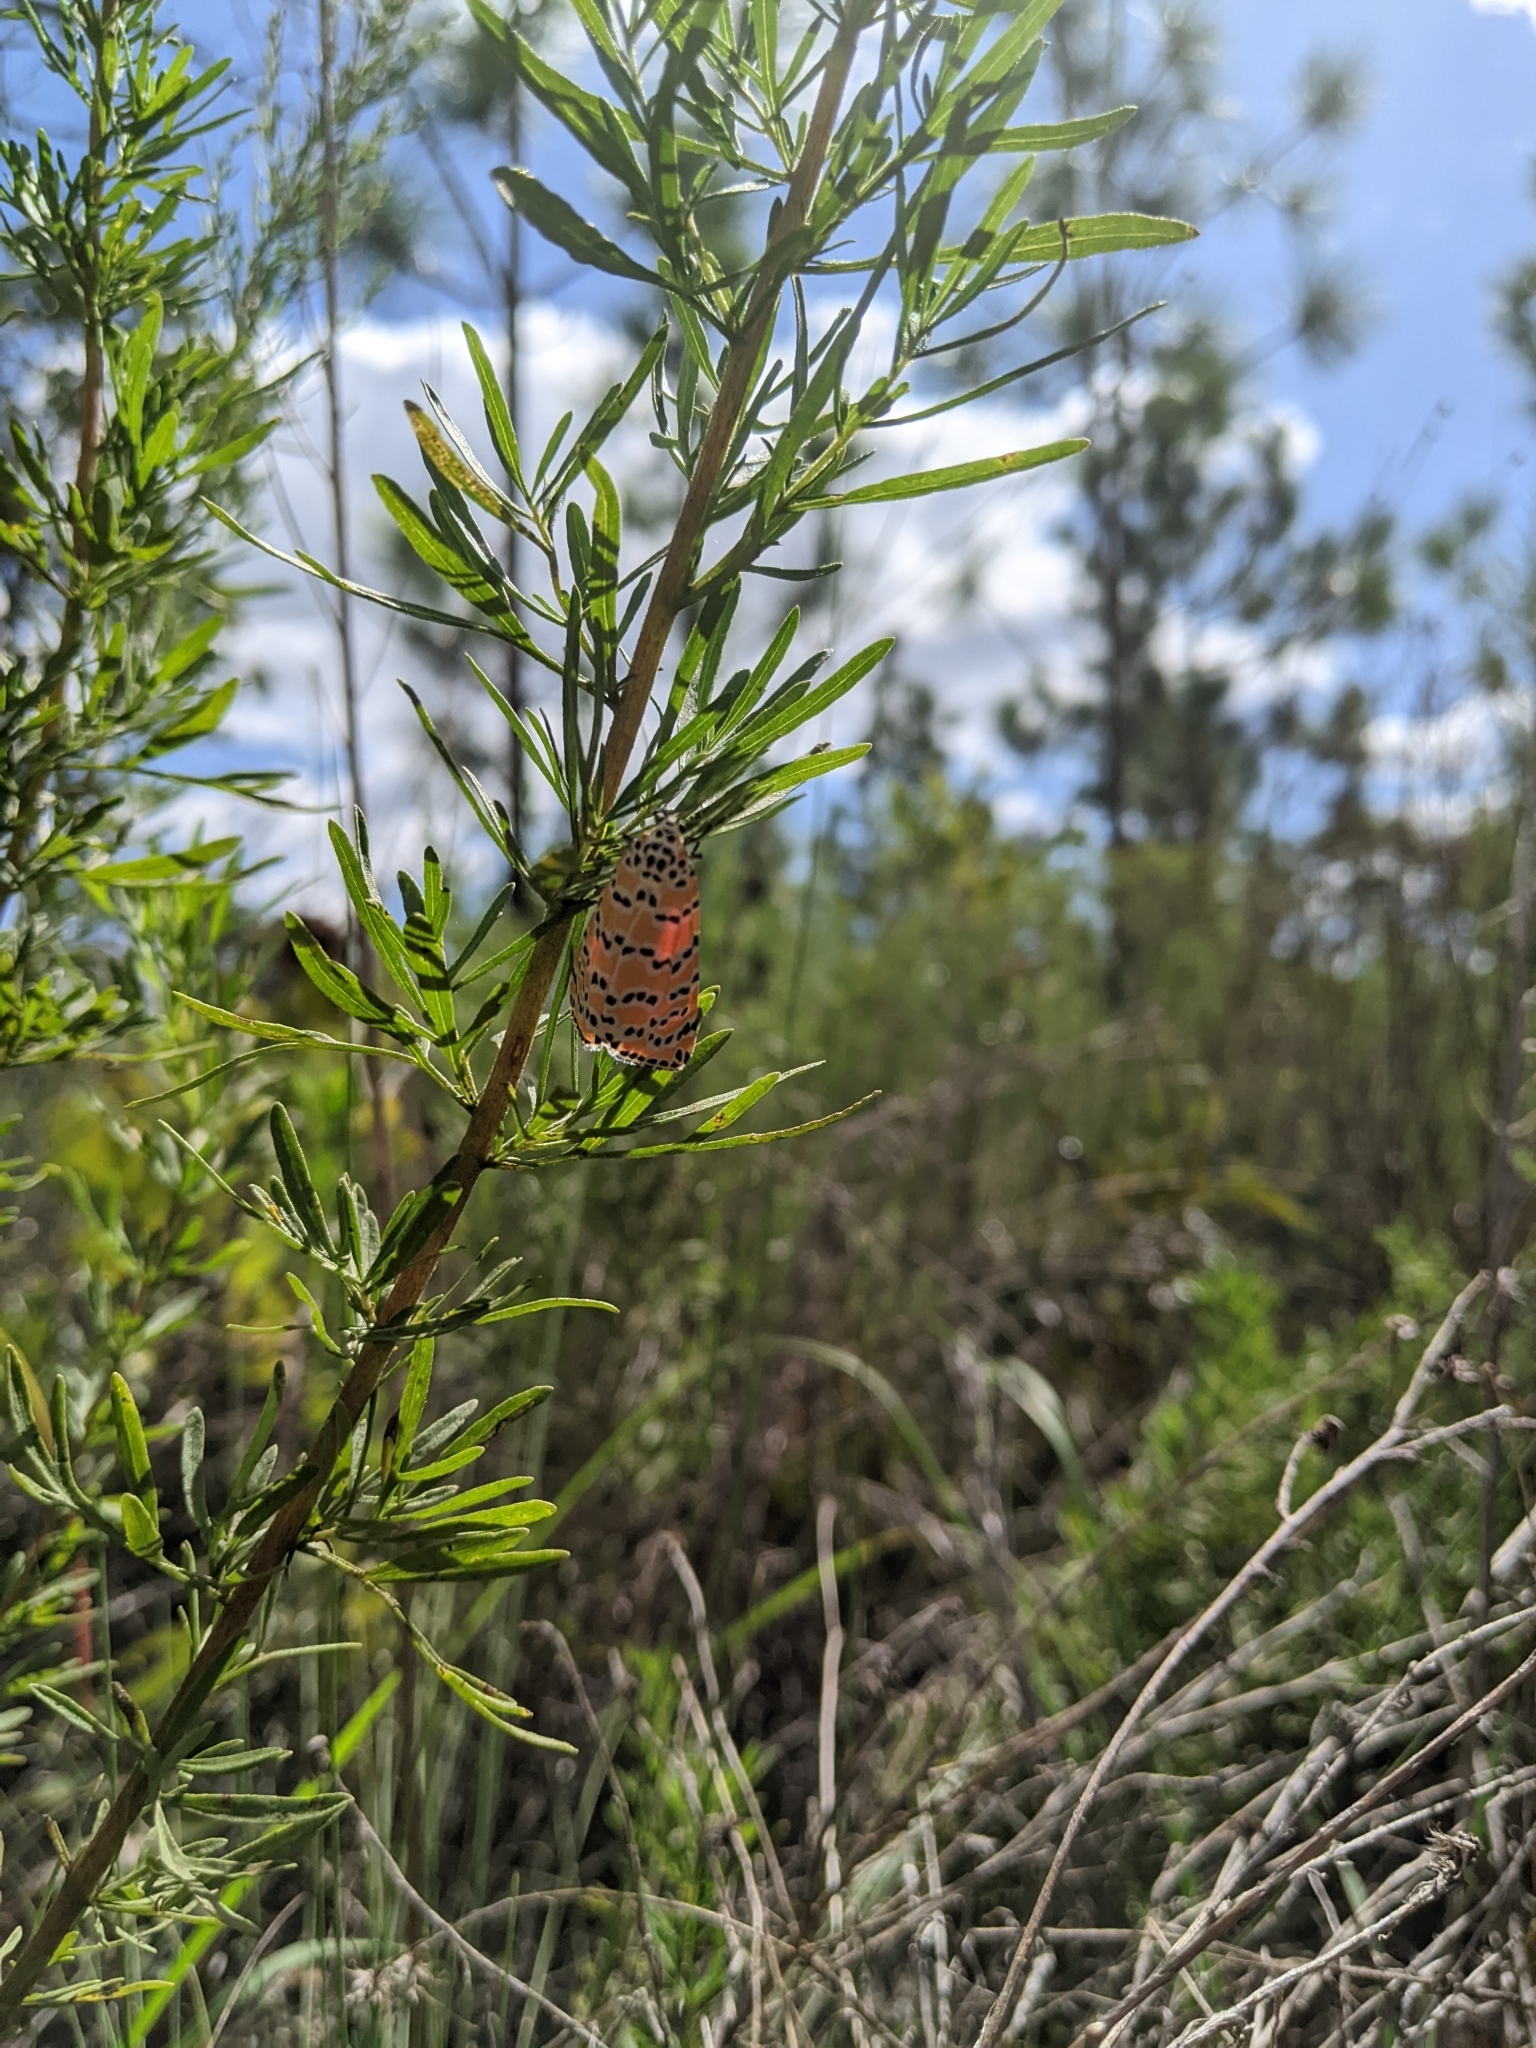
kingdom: Animalia
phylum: Arthropoda
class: Insecta
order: Lepidoptera
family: Erebidae
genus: Utetheisa
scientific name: Utetheisa ornatrix
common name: Beautiful utetheisa
